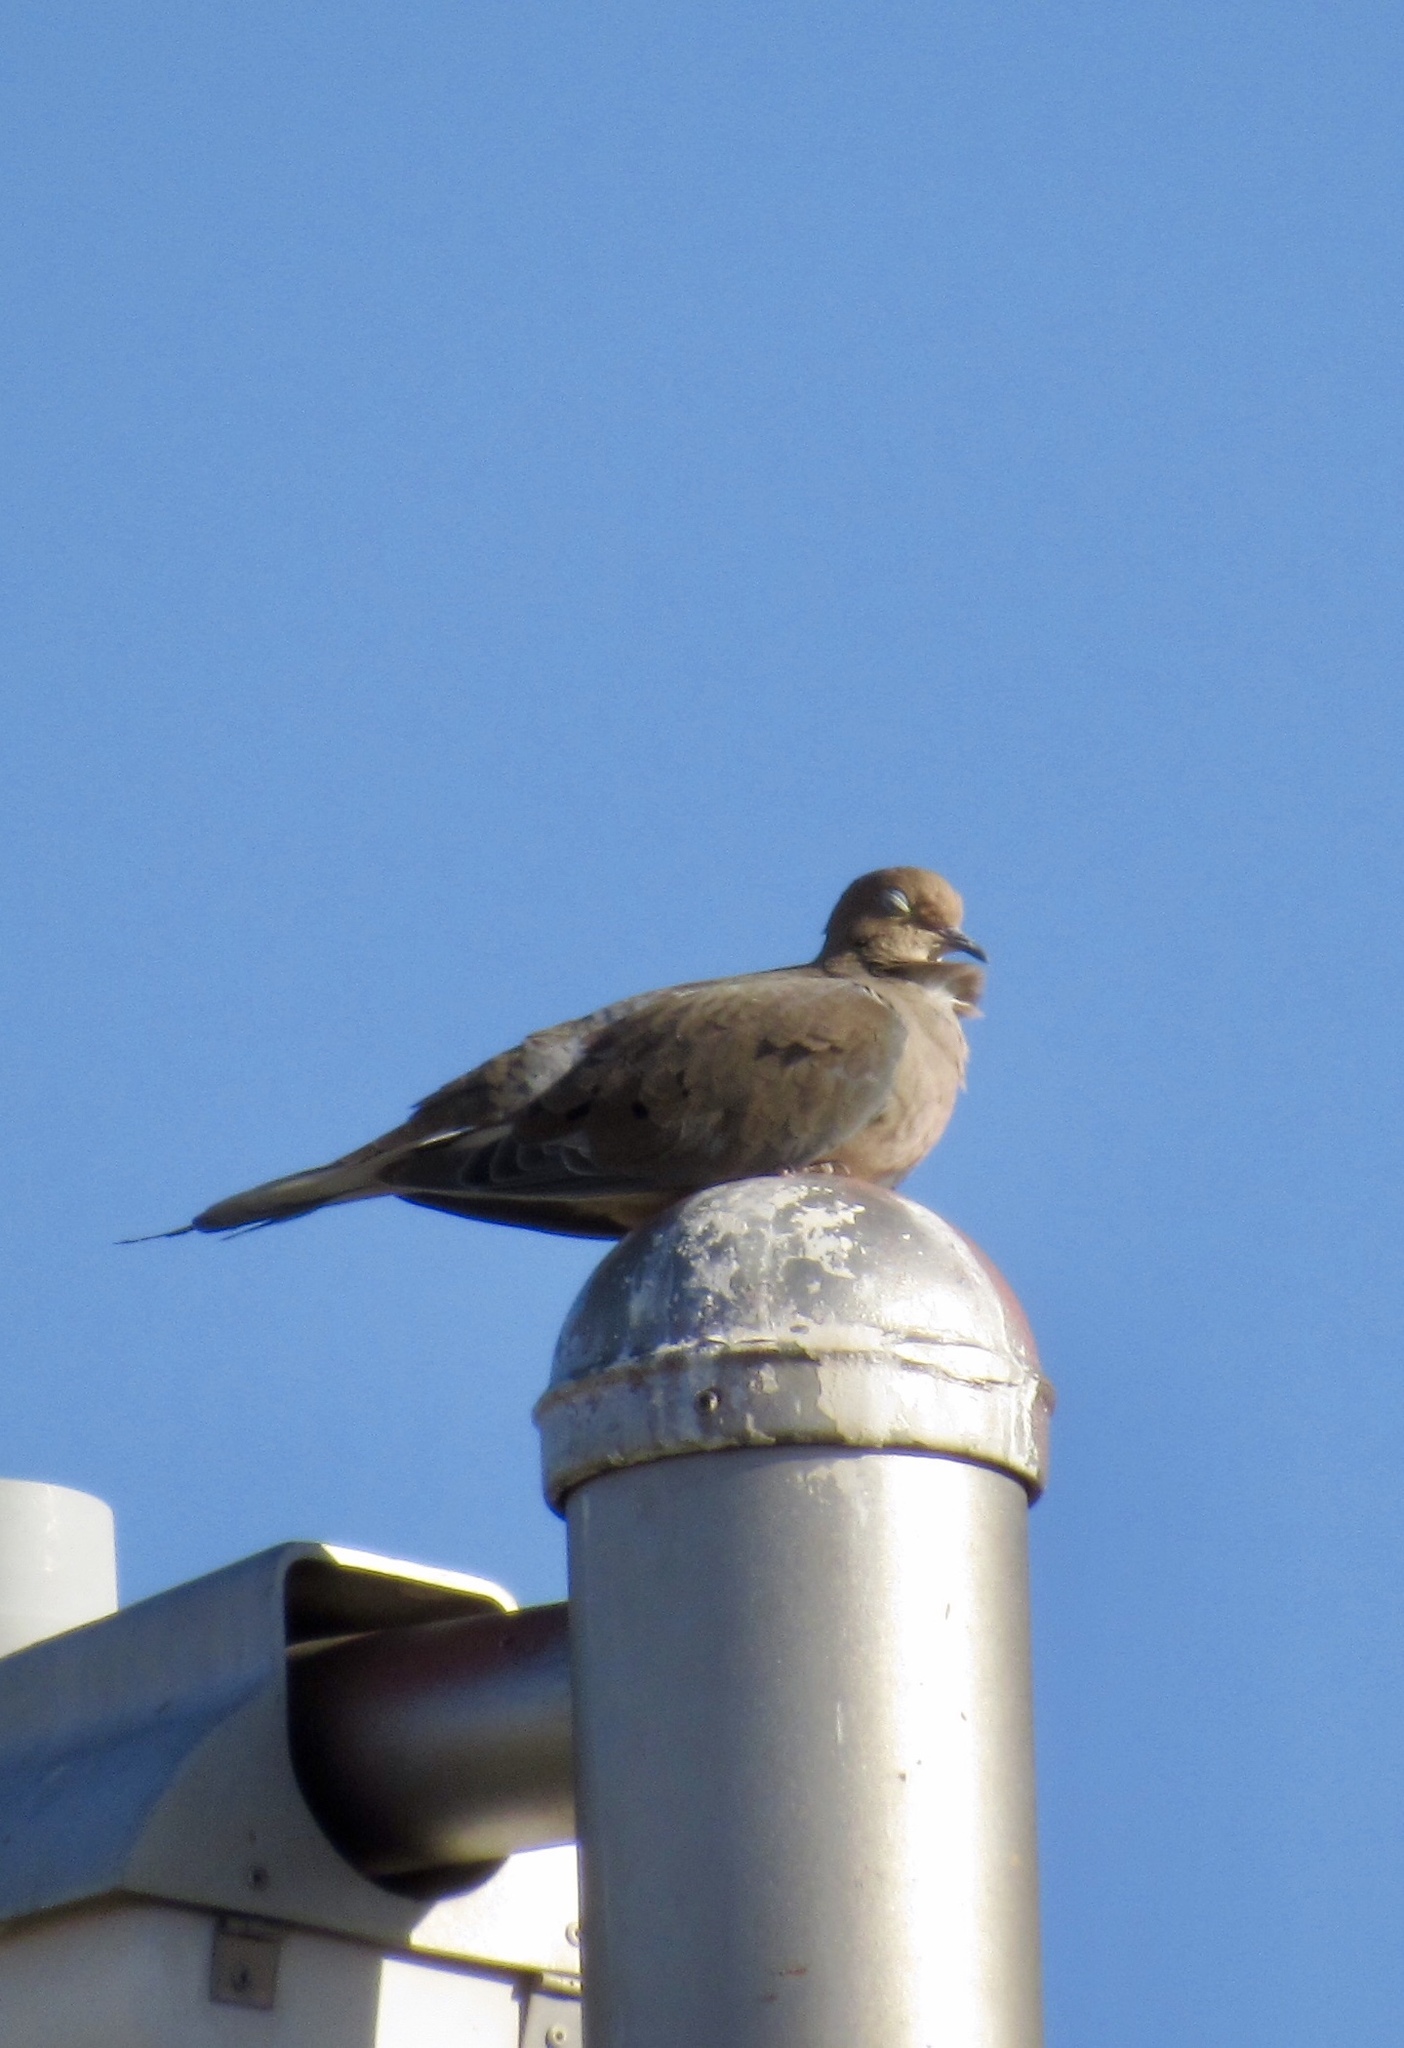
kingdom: Animalia
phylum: Chordata
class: Aves
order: Columbiformes
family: Columbidae
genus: Zenaida
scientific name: Zenaida macroura
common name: Mourning dove
